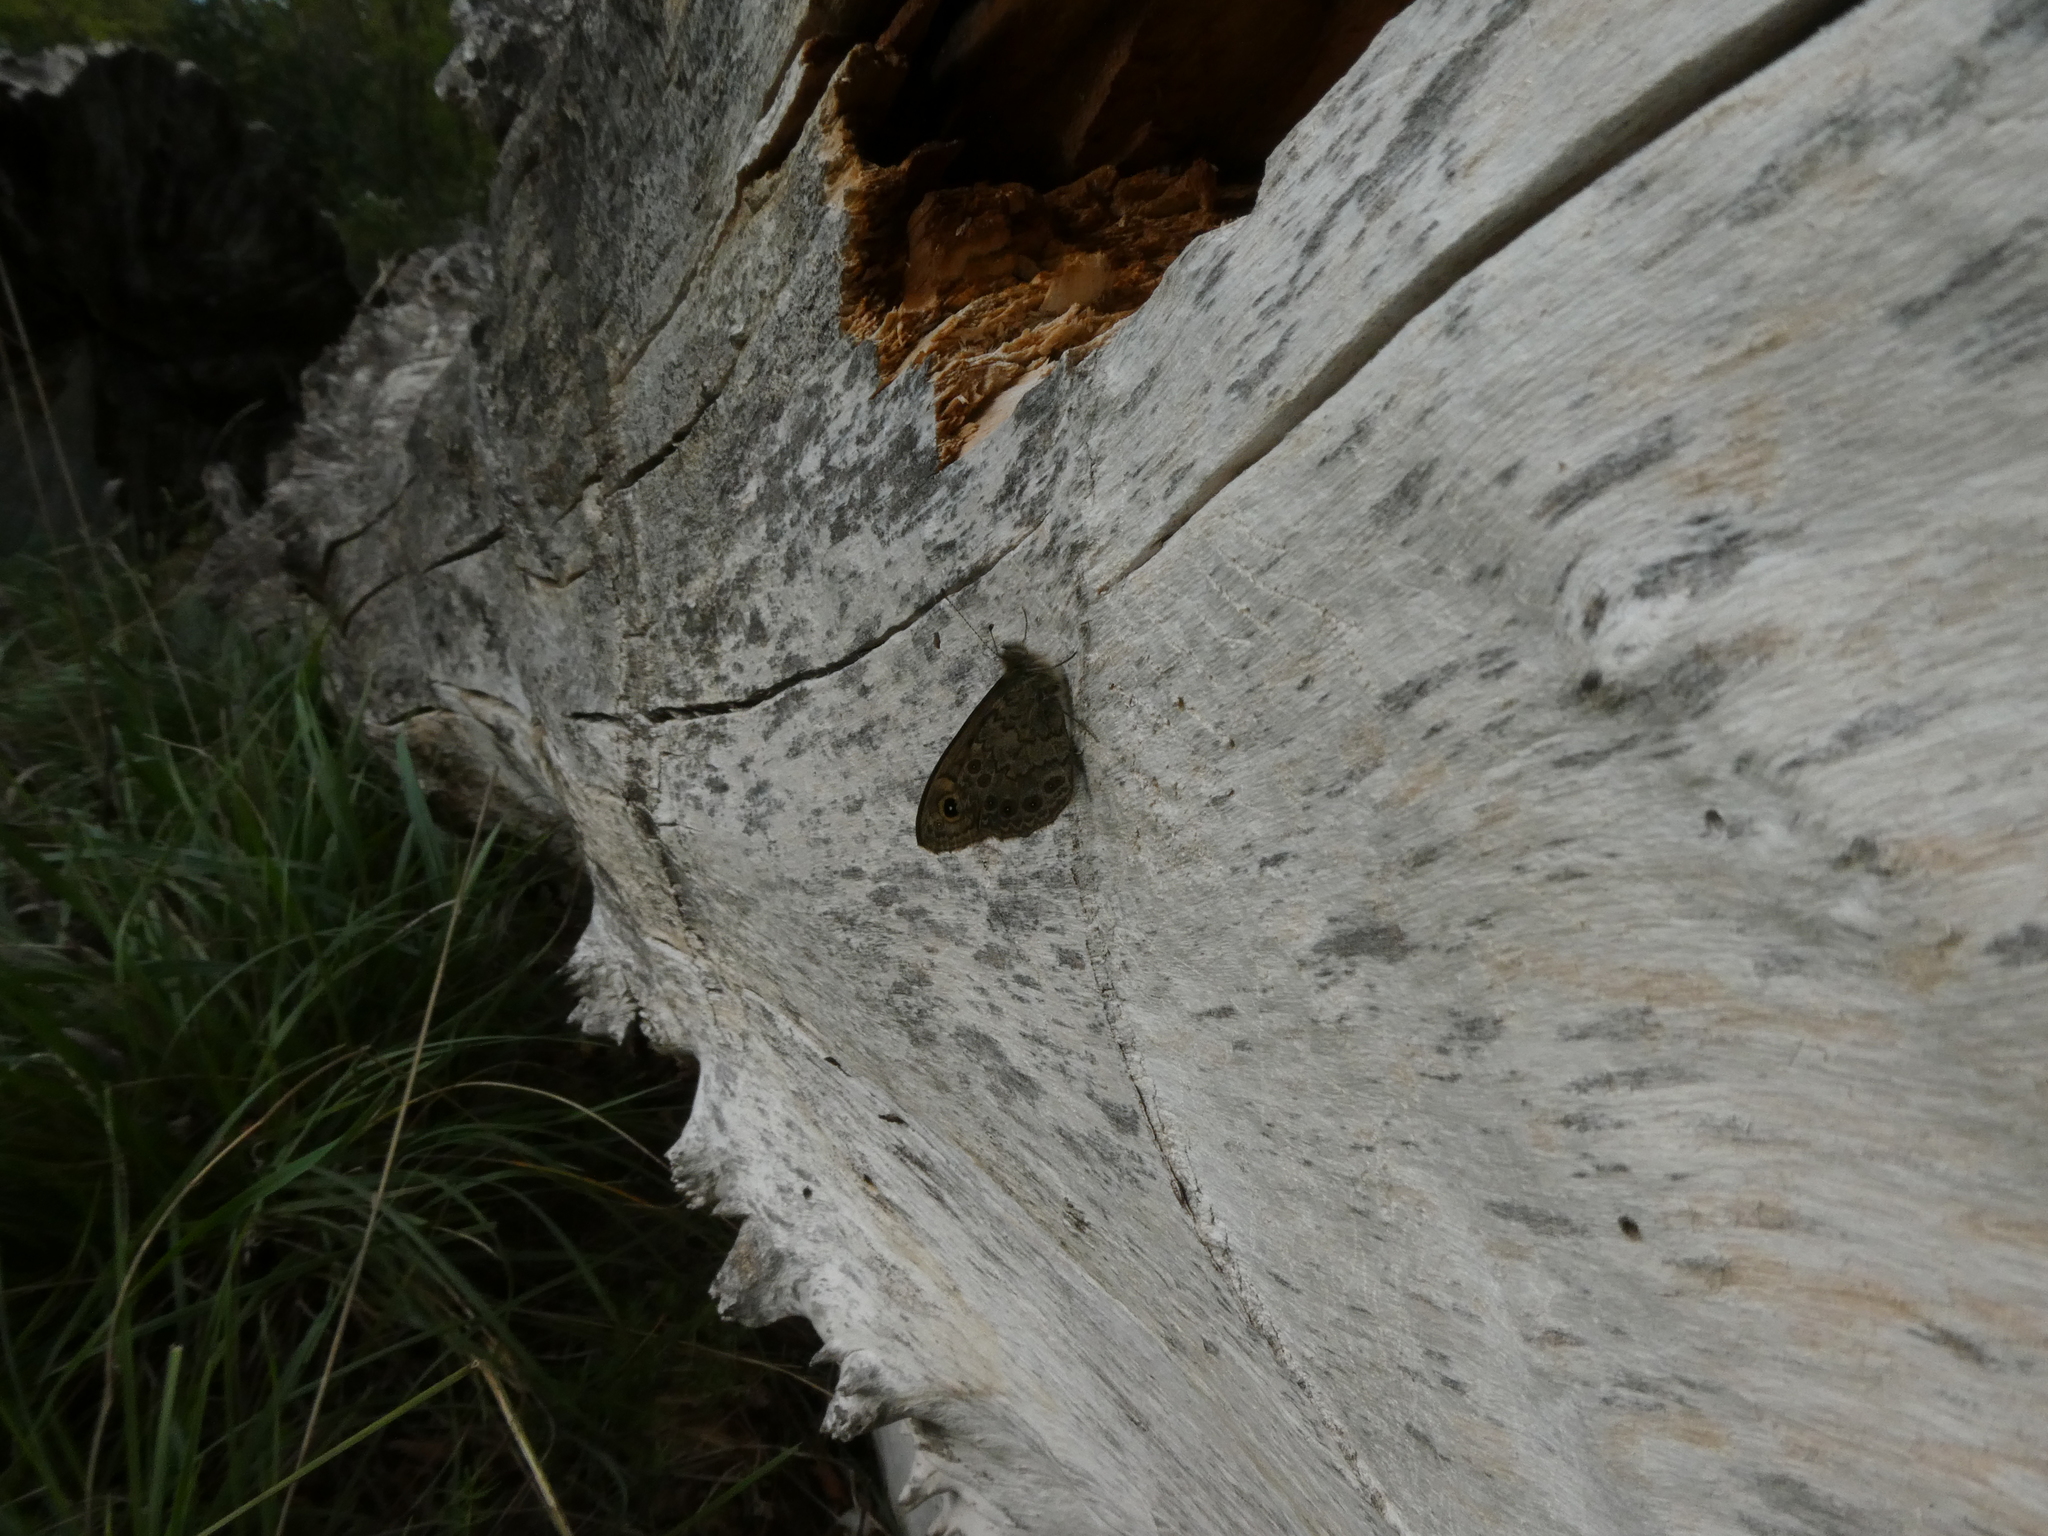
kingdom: Animalia
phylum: Arthropoda
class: Insecta
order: Lepidoptera
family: Nymphalidae
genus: Pararge
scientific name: Pararge Lasiommata megera
